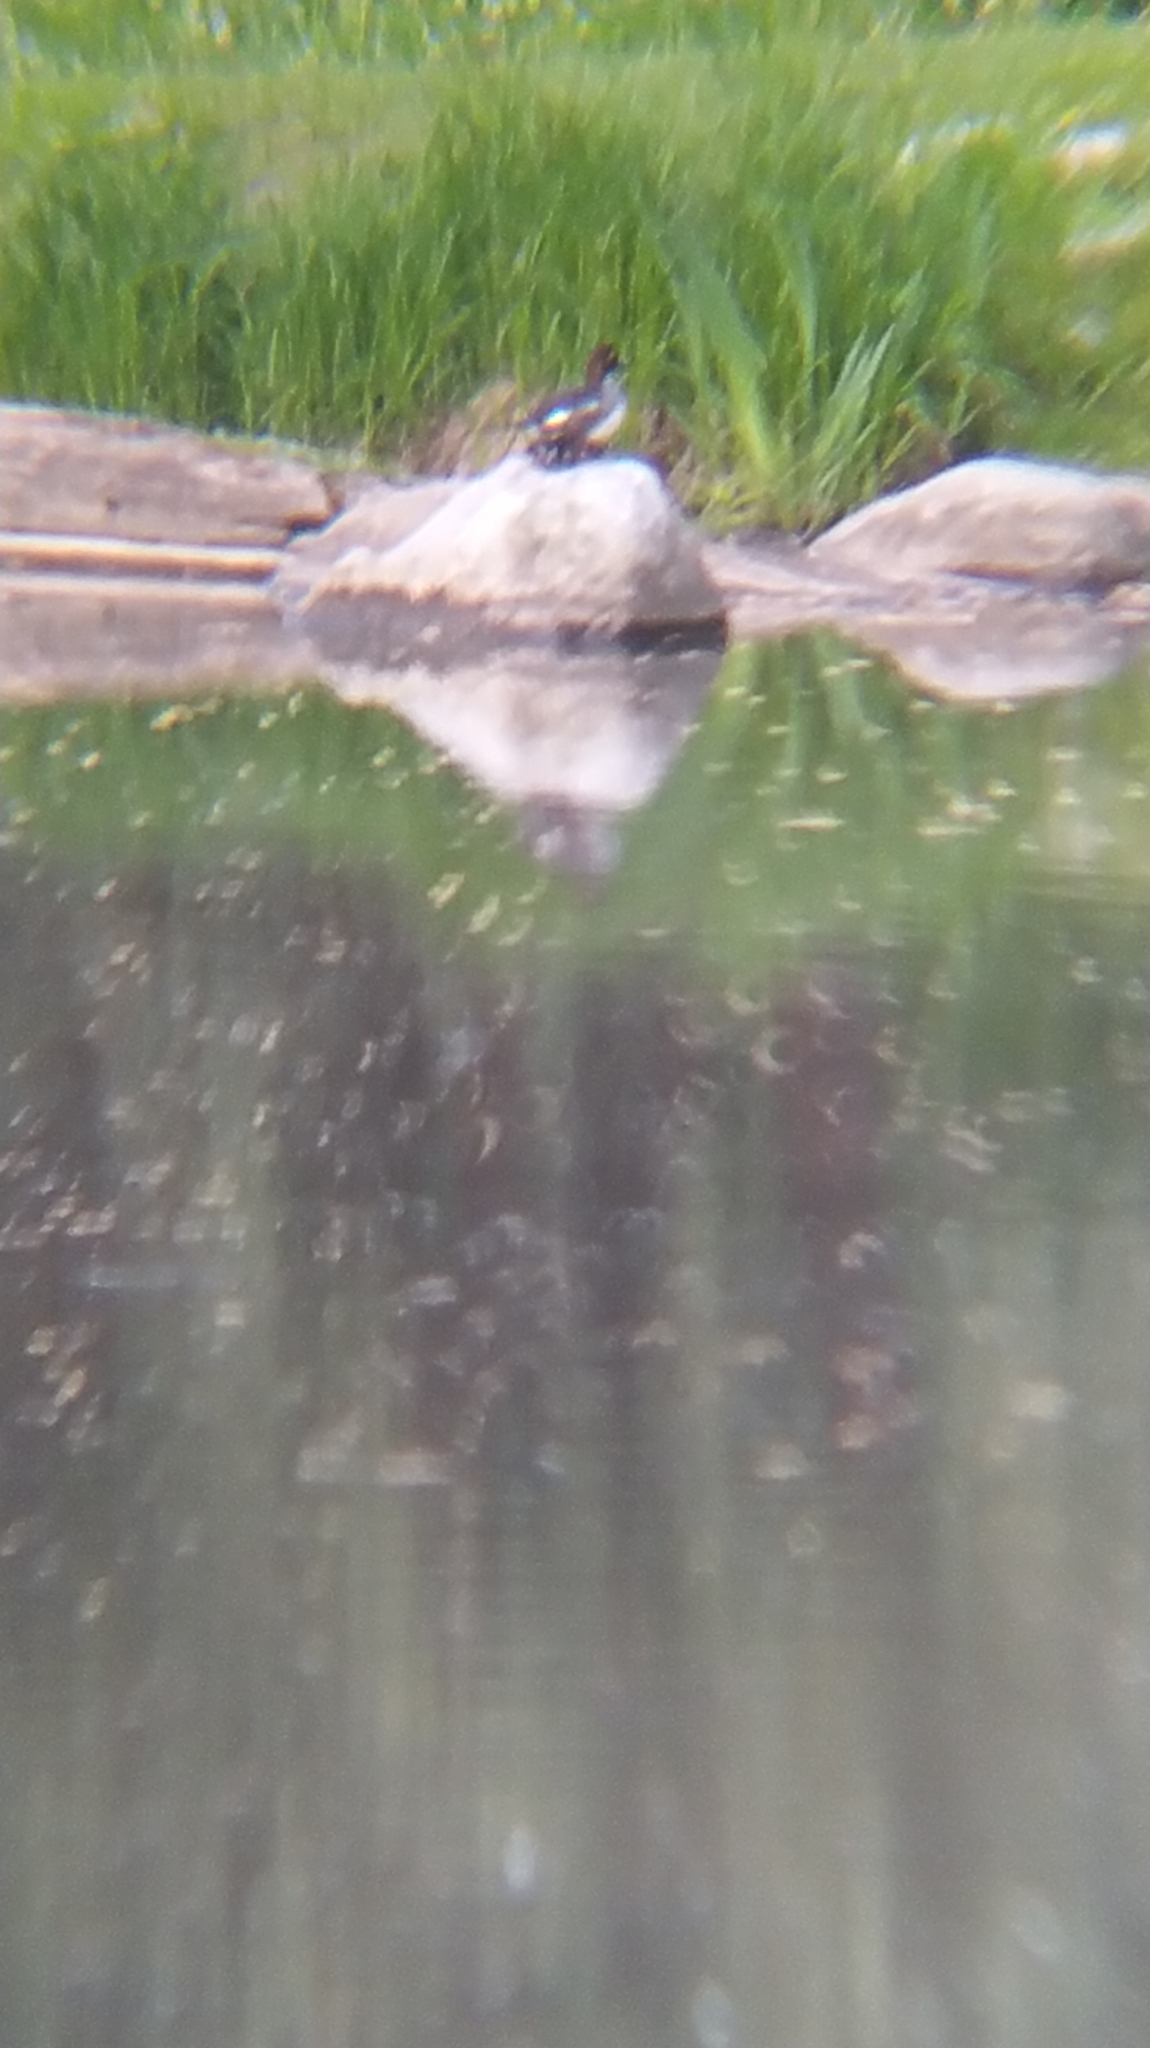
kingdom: Animalia
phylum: Chordata
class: Aves
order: Anseriformes
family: Anatidae
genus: Bucephala
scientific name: Bucephala clangula
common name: Common goldeneye
